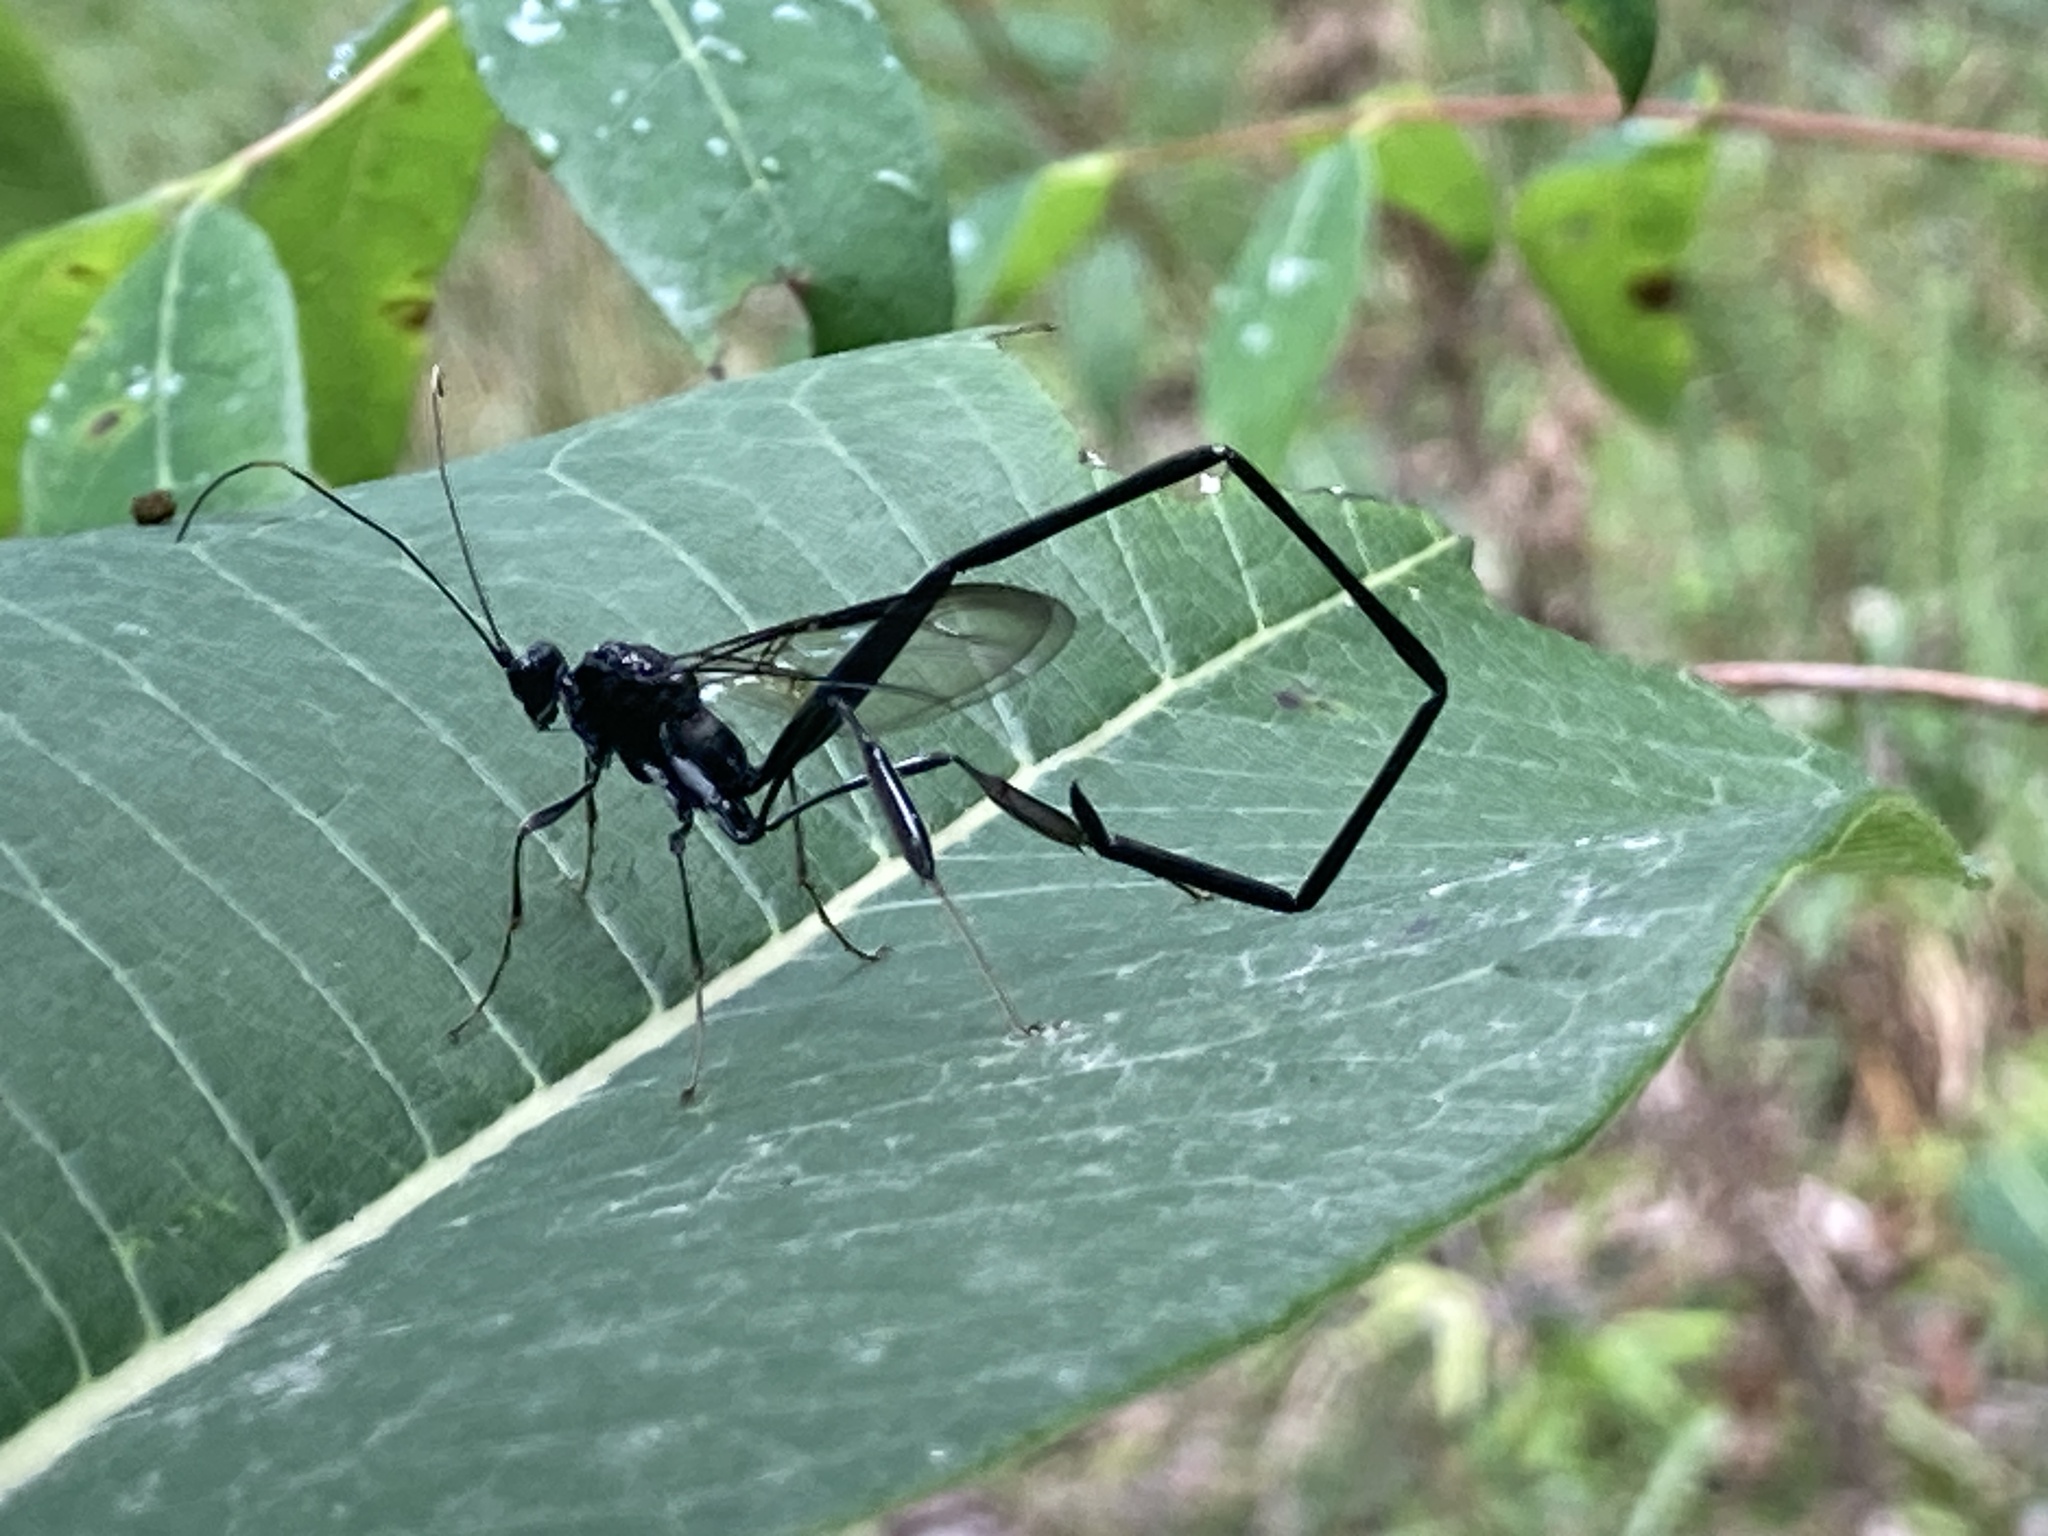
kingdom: Animalia
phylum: Arthropoda
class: Insecta
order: Hymenoptera
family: Pelecinidae
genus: Pelecinus
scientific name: Pelecinus polyturator
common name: American pelecinid wasp
